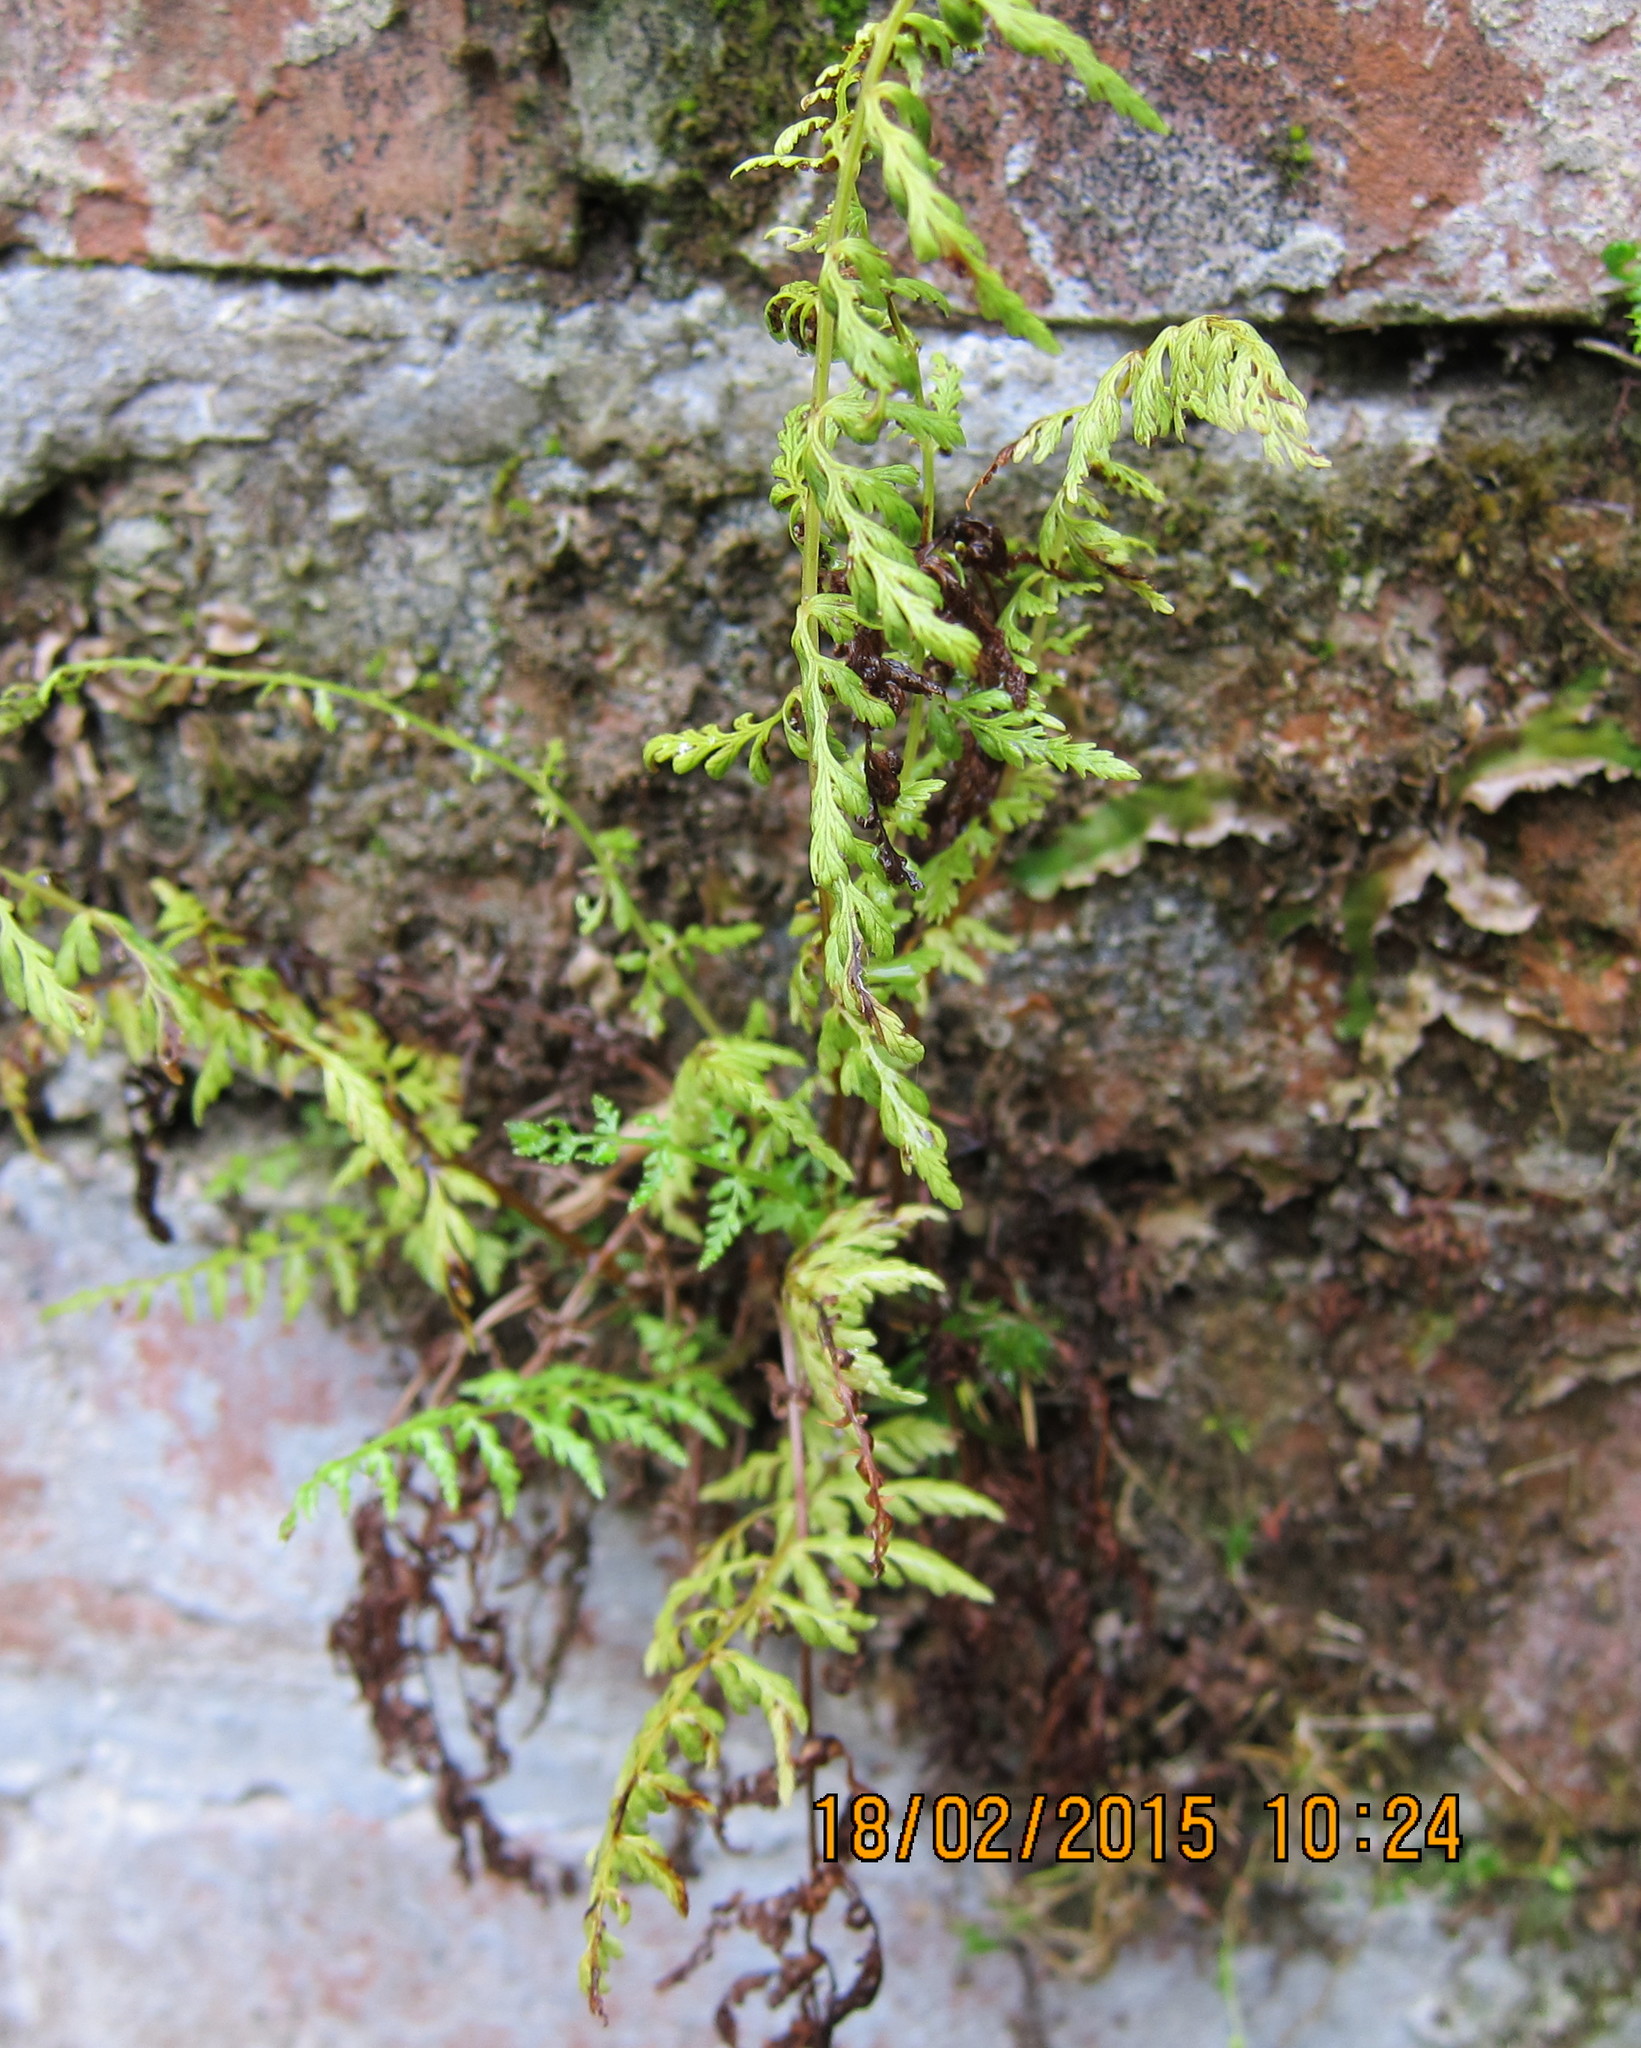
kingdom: Plantae
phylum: Tracheophyta
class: Polypodiopsida
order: Polypodiales
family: Cystopteridaceae
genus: Cystopteris
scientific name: Cystopteris fragilis
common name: Brittle bladder fern
